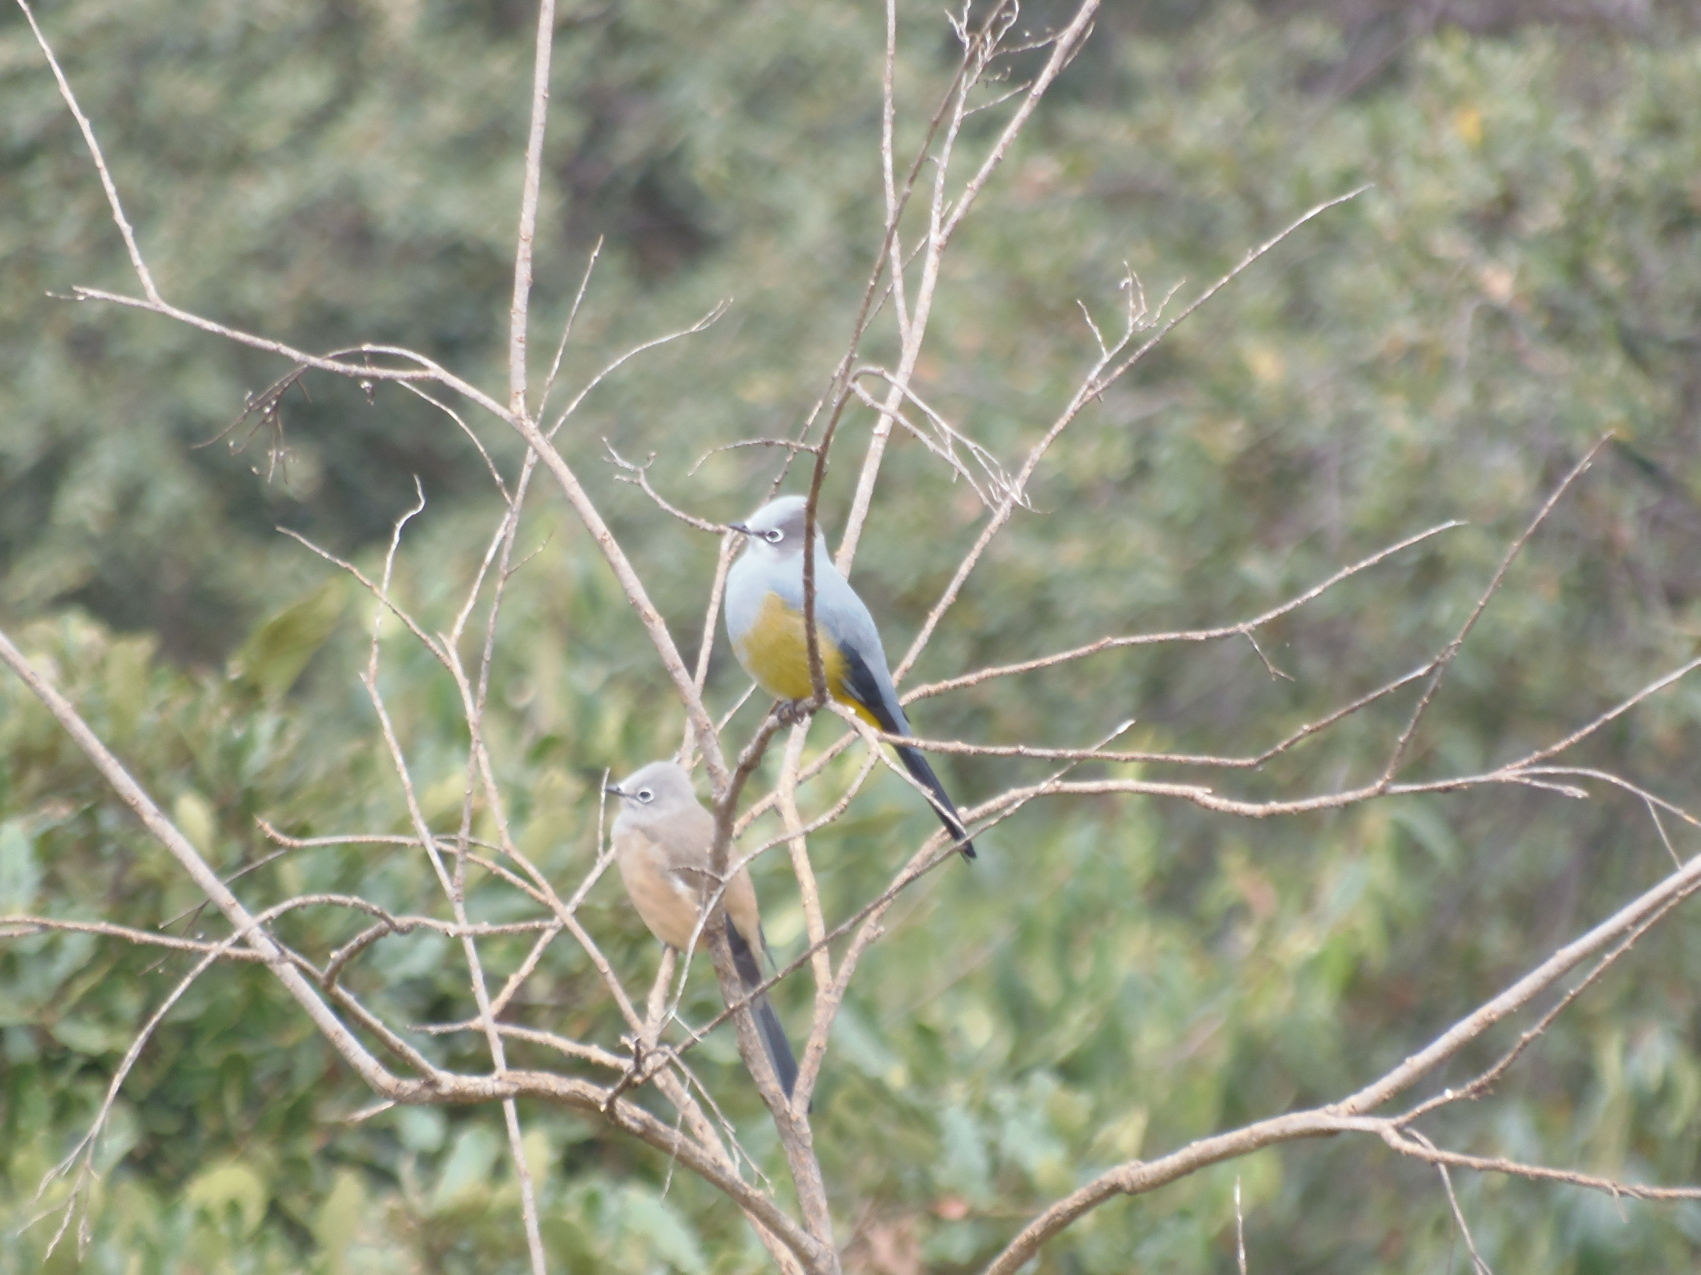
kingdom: Animalia
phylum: Chordata
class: Aves
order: Passeriformes
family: Ptilogonatidae
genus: Ptilogonys
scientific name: Ptilogonys cinereus
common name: Gray silky-flycatcher
